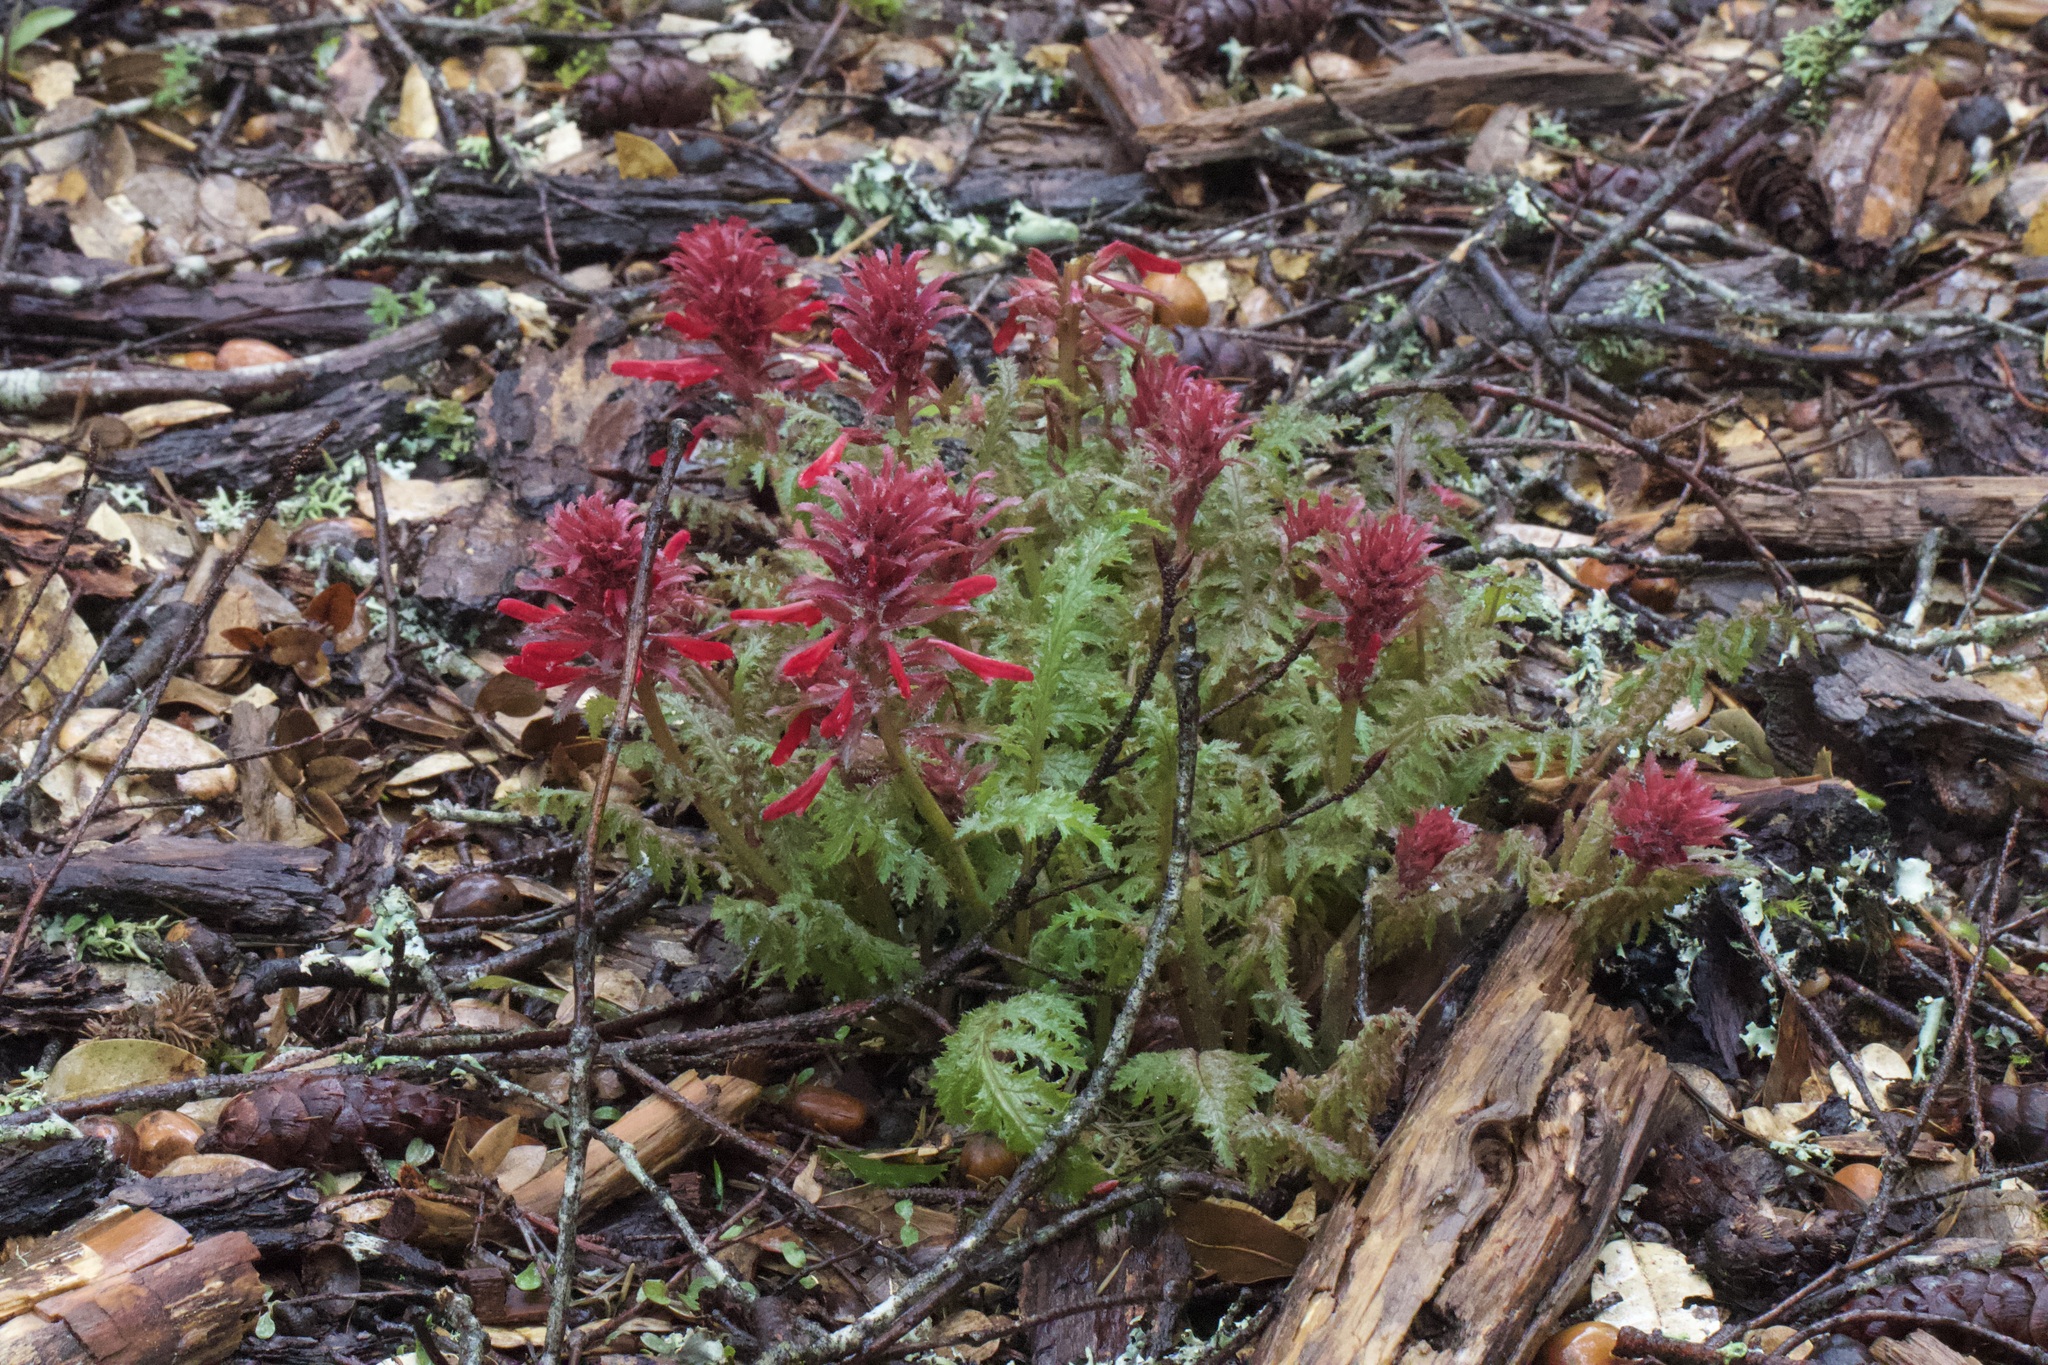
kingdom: Plantae
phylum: Tracheophyta
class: Magnoliopsida
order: Lamiales
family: Orobanchaceae
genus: Pedicularis
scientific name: Pedicularis densiflora
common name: Indian warrior
